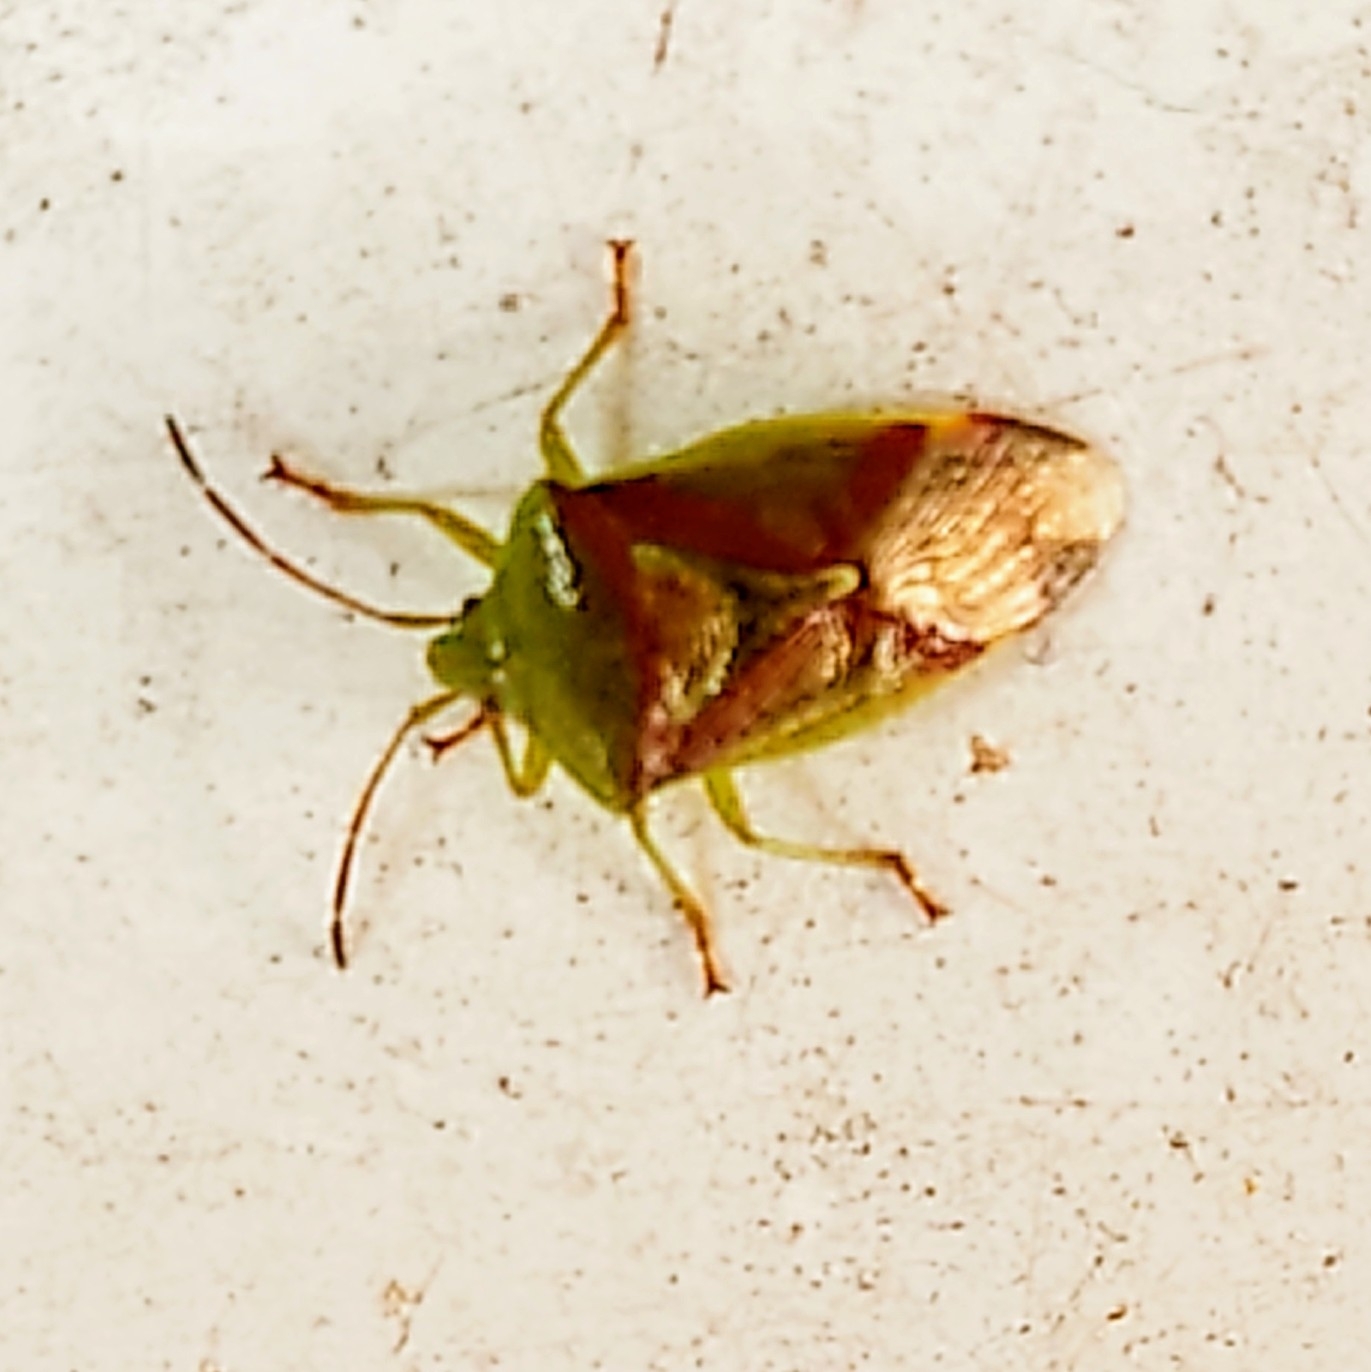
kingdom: Animalia
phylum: Arthropoda
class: Insecta
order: Hemiptera
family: Acanthosomatidae
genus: Elasmostethus
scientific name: Elasmostethus interstinctus
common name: Birch shieldbug
